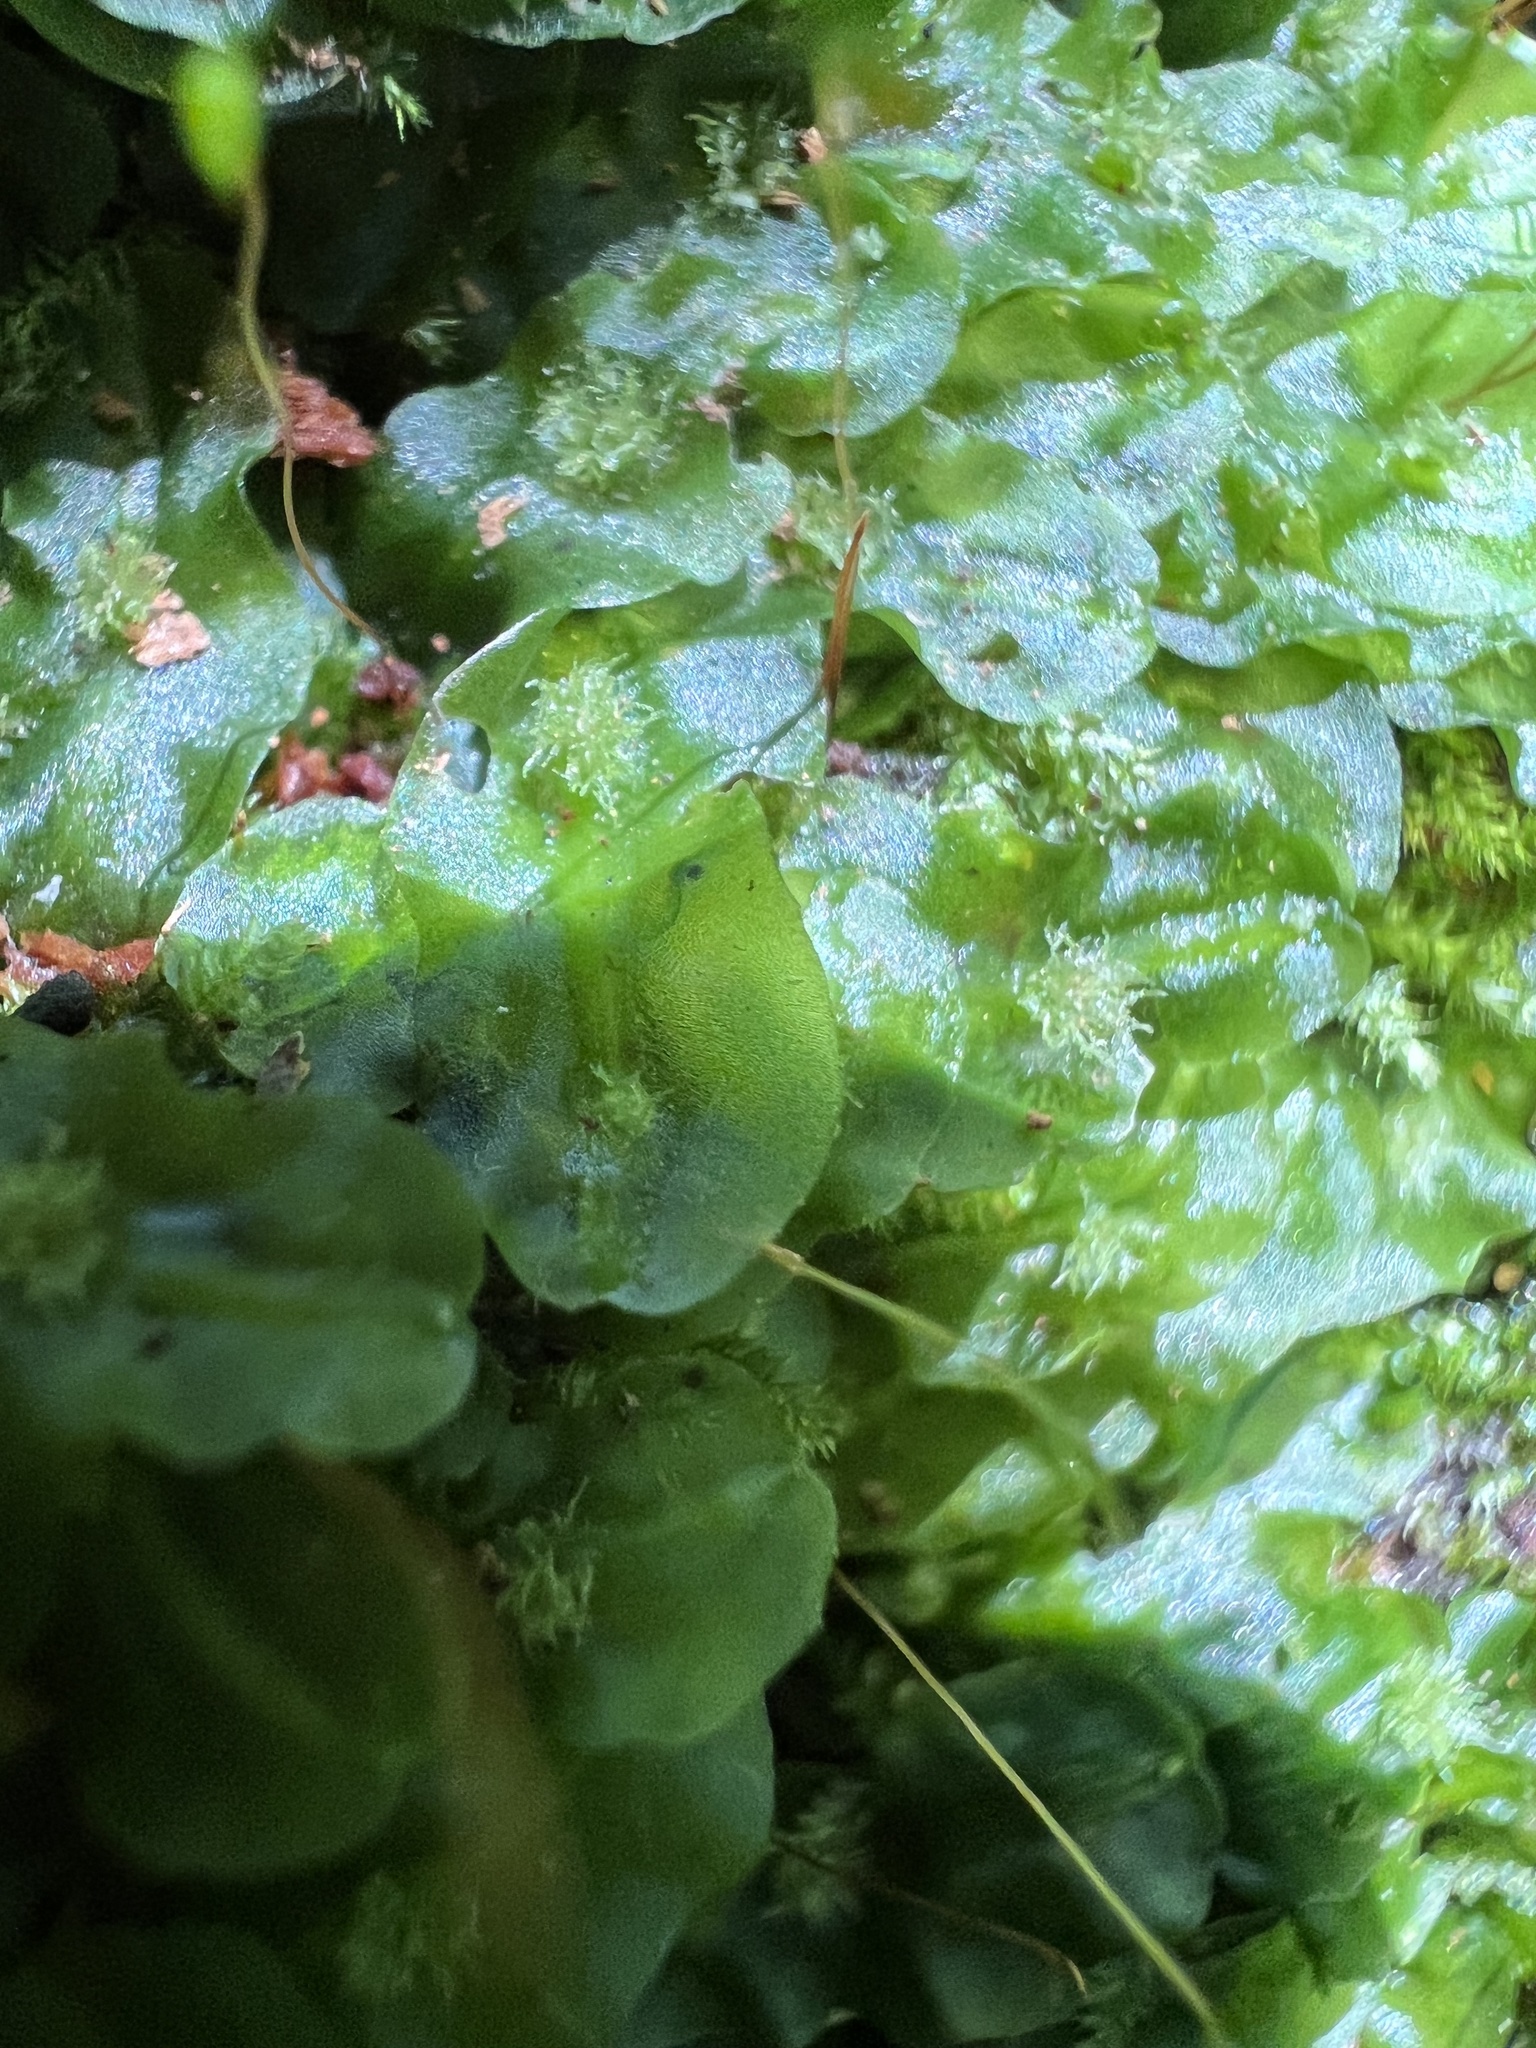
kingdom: Plantae
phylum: Marchantiophyta
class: Jungermanniopsida
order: Pallaviciniales
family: Pallaviciniaceae
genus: Pallavicinia
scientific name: Pallavicinia lyellii
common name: Veilwort
